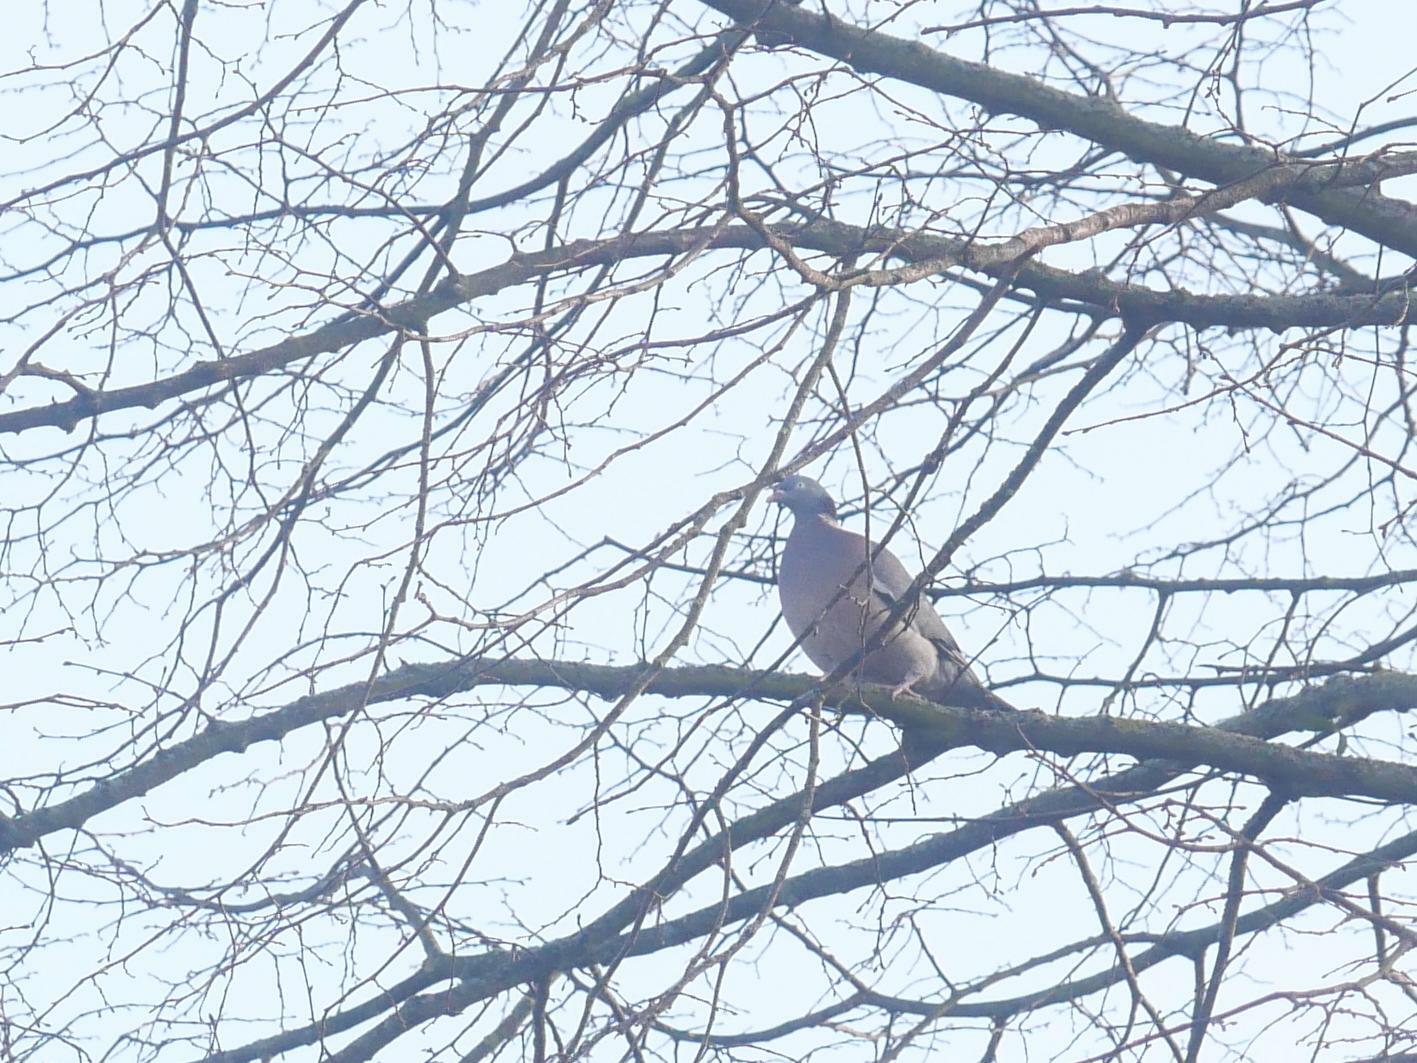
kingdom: Animalia
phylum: Chordata
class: Aves
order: Columbiformes
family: Columbidae
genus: Columba
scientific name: Columba palumbus
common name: Common wood pigeon
